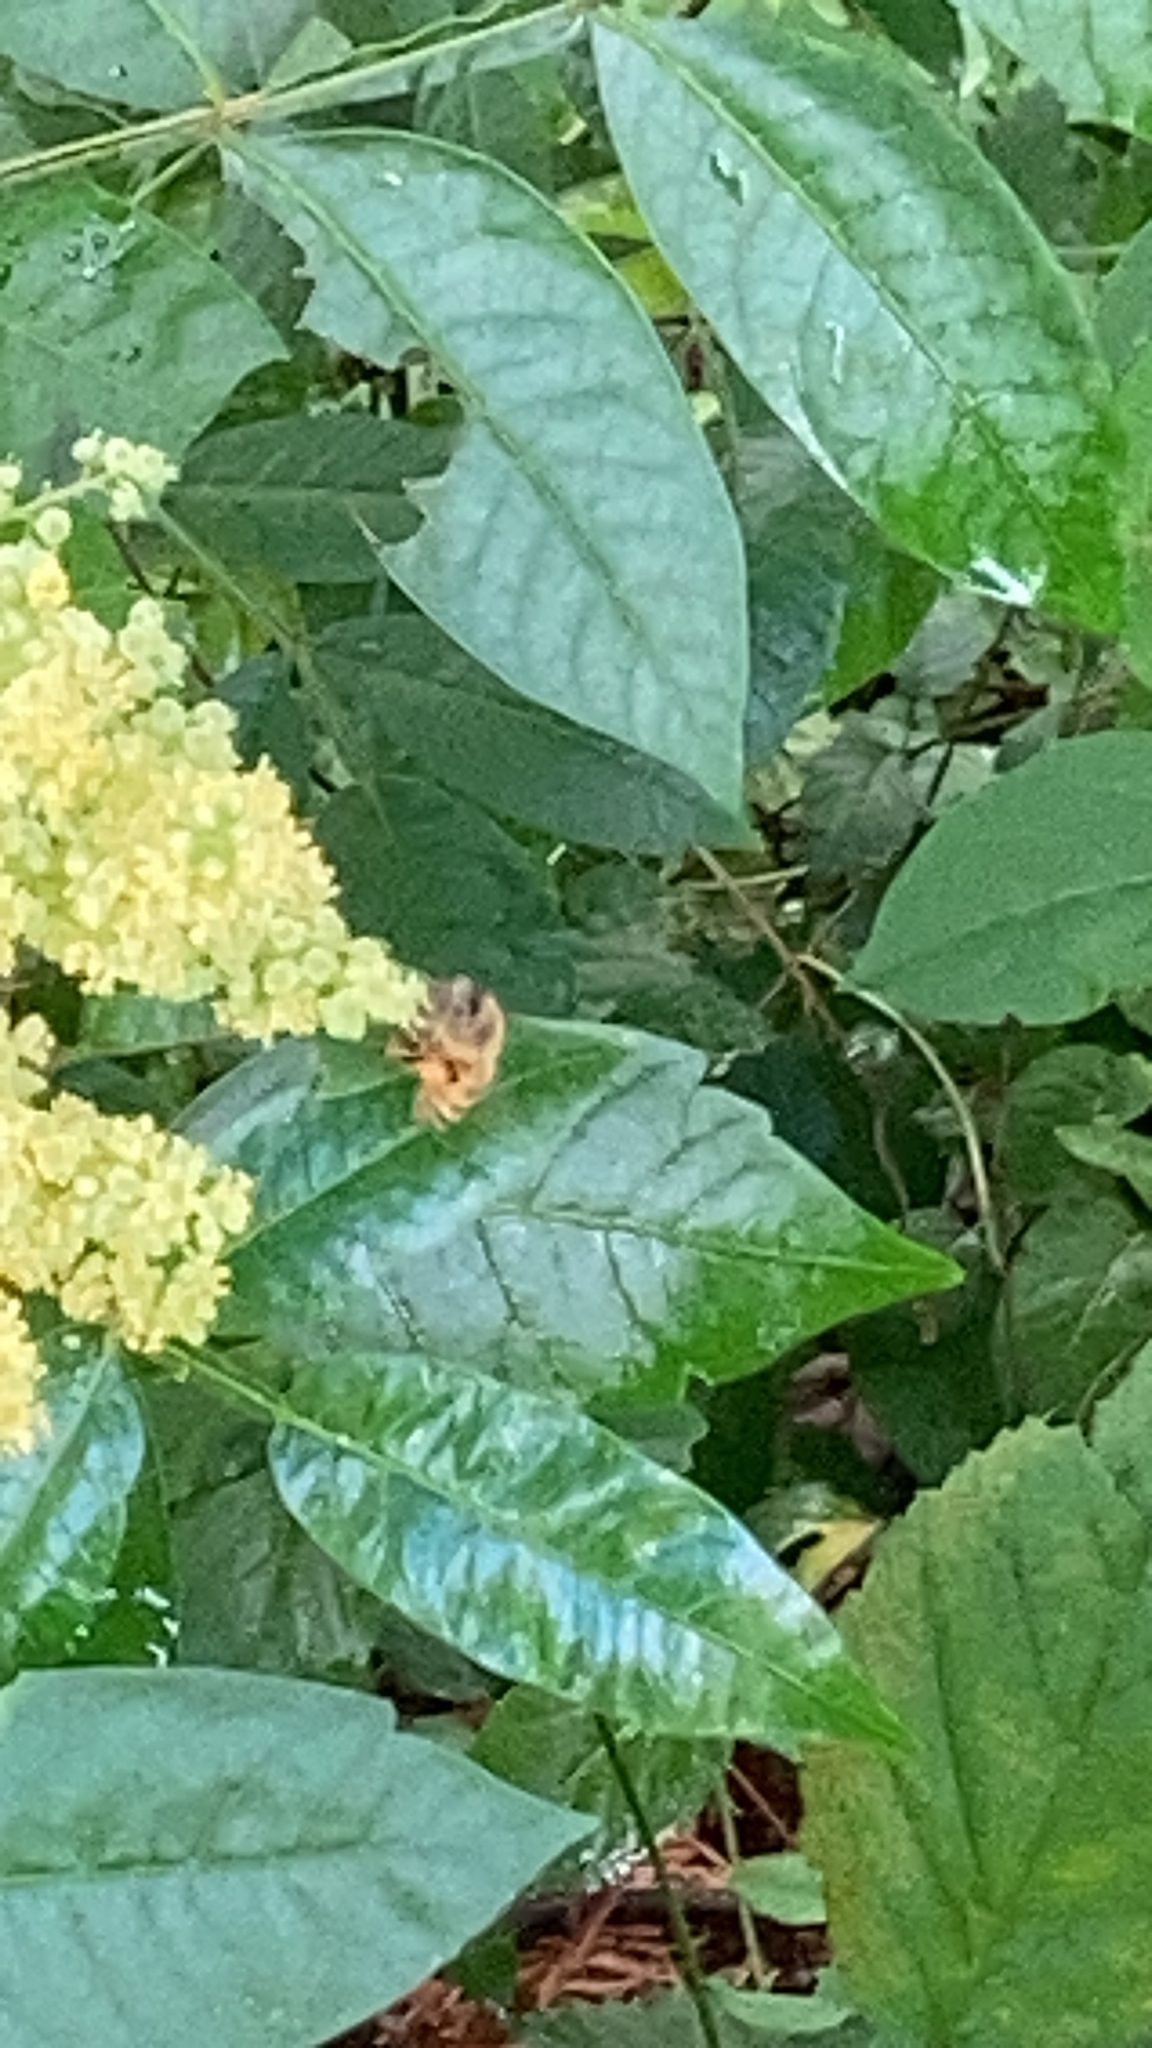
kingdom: Animalia
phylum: Arthropoda
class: Insecta
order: Hymenoptera
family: Apidae
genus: Apis
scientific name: Apis mellifera
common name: Honey bee
